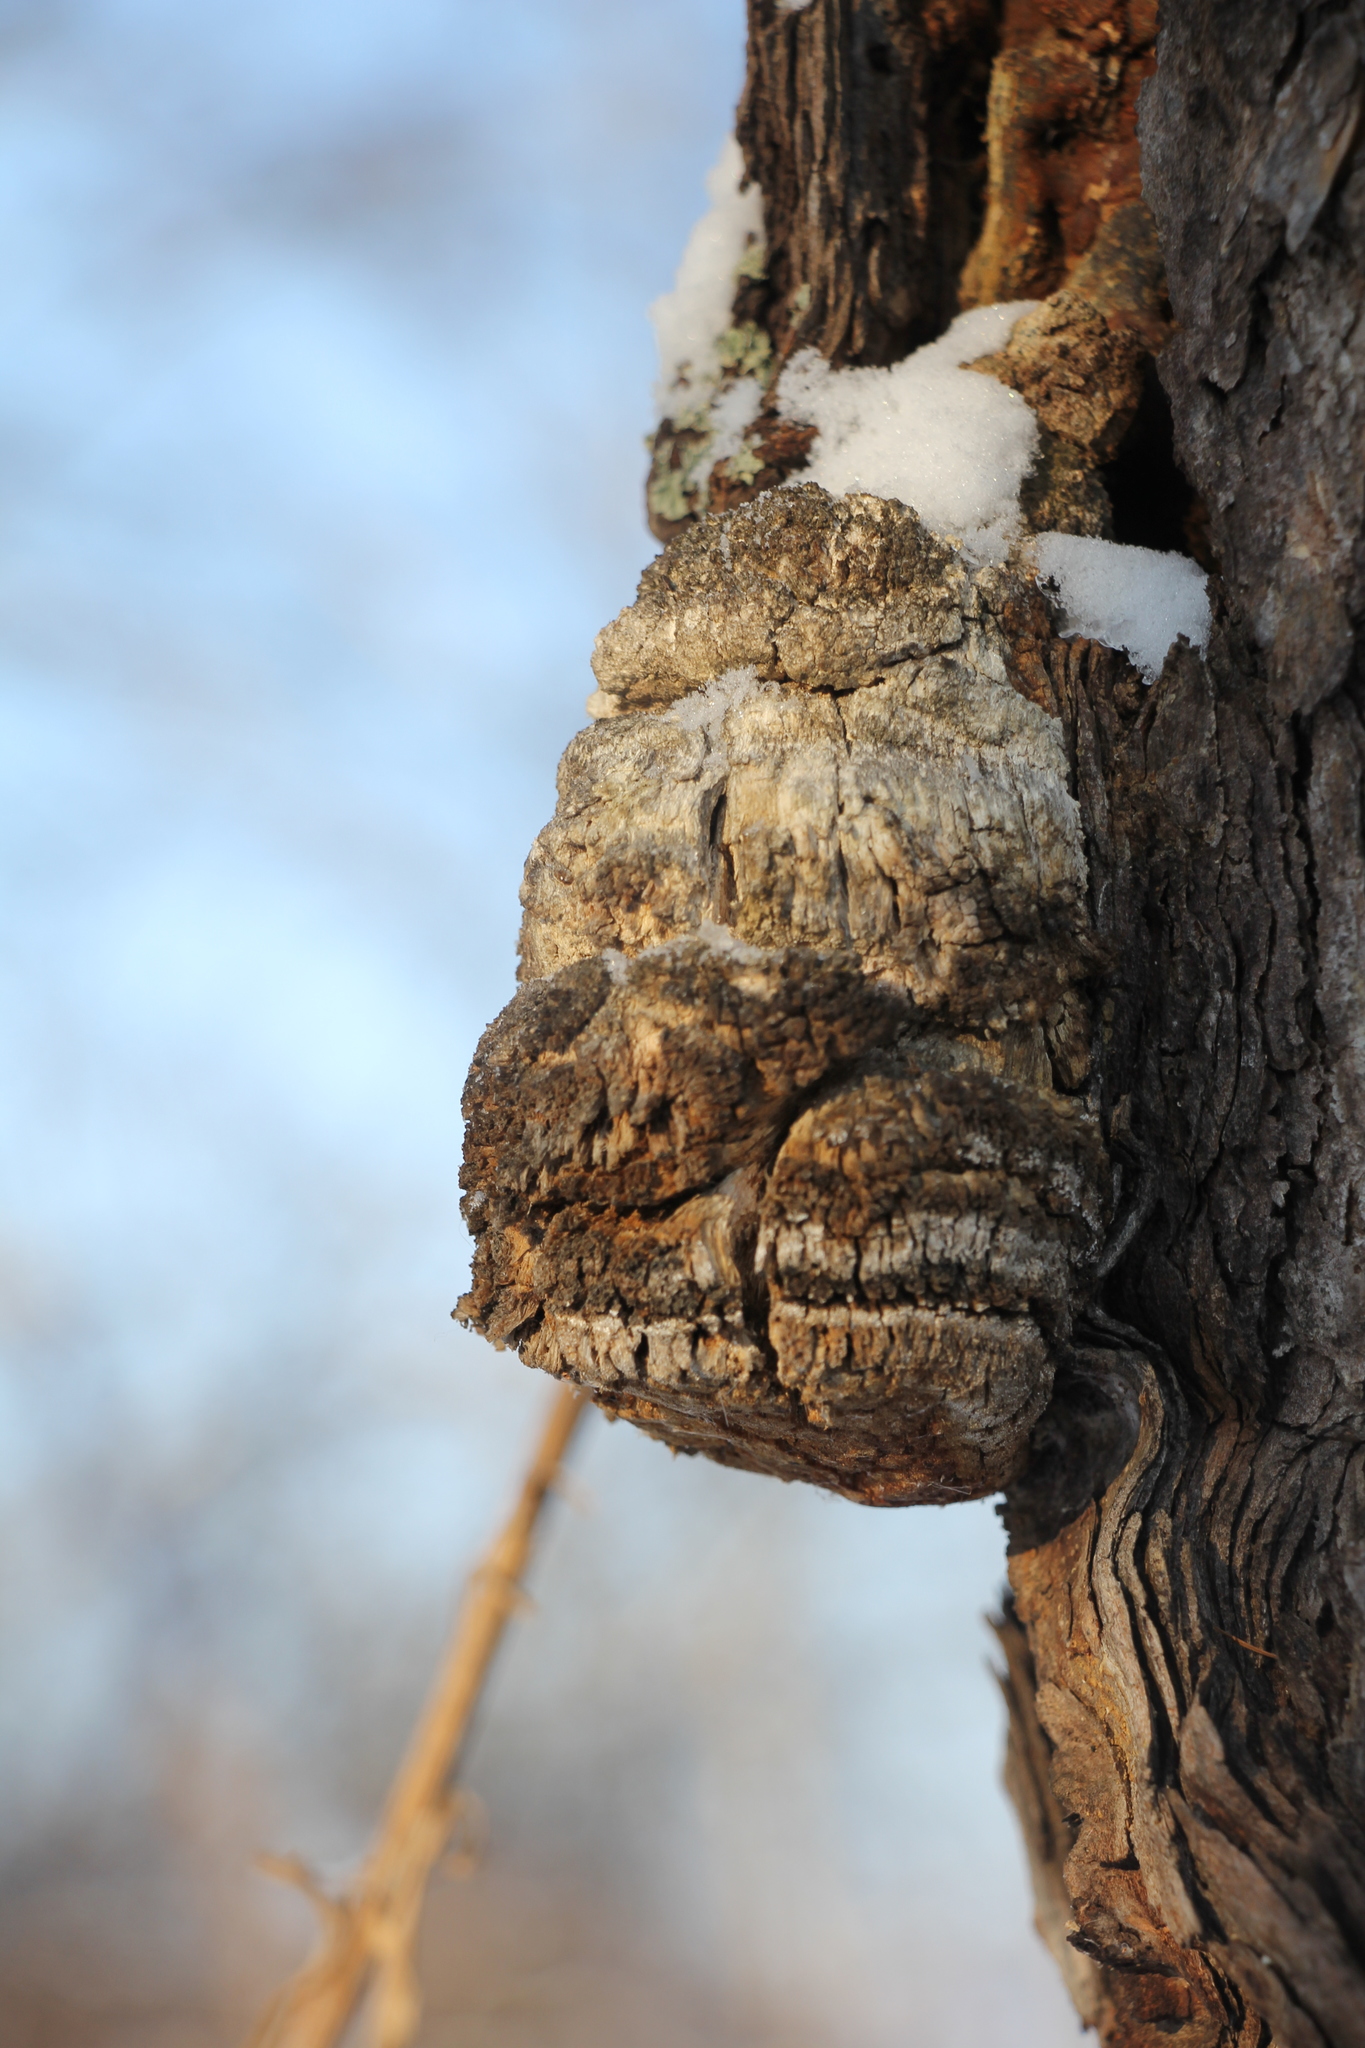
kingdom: Fungi
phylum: Basidiomycota
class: Agaricomycetes
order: Polyporales
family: Fomitopsidaceae
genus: Fomitopsis
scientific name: Fomitopsis officinalis
